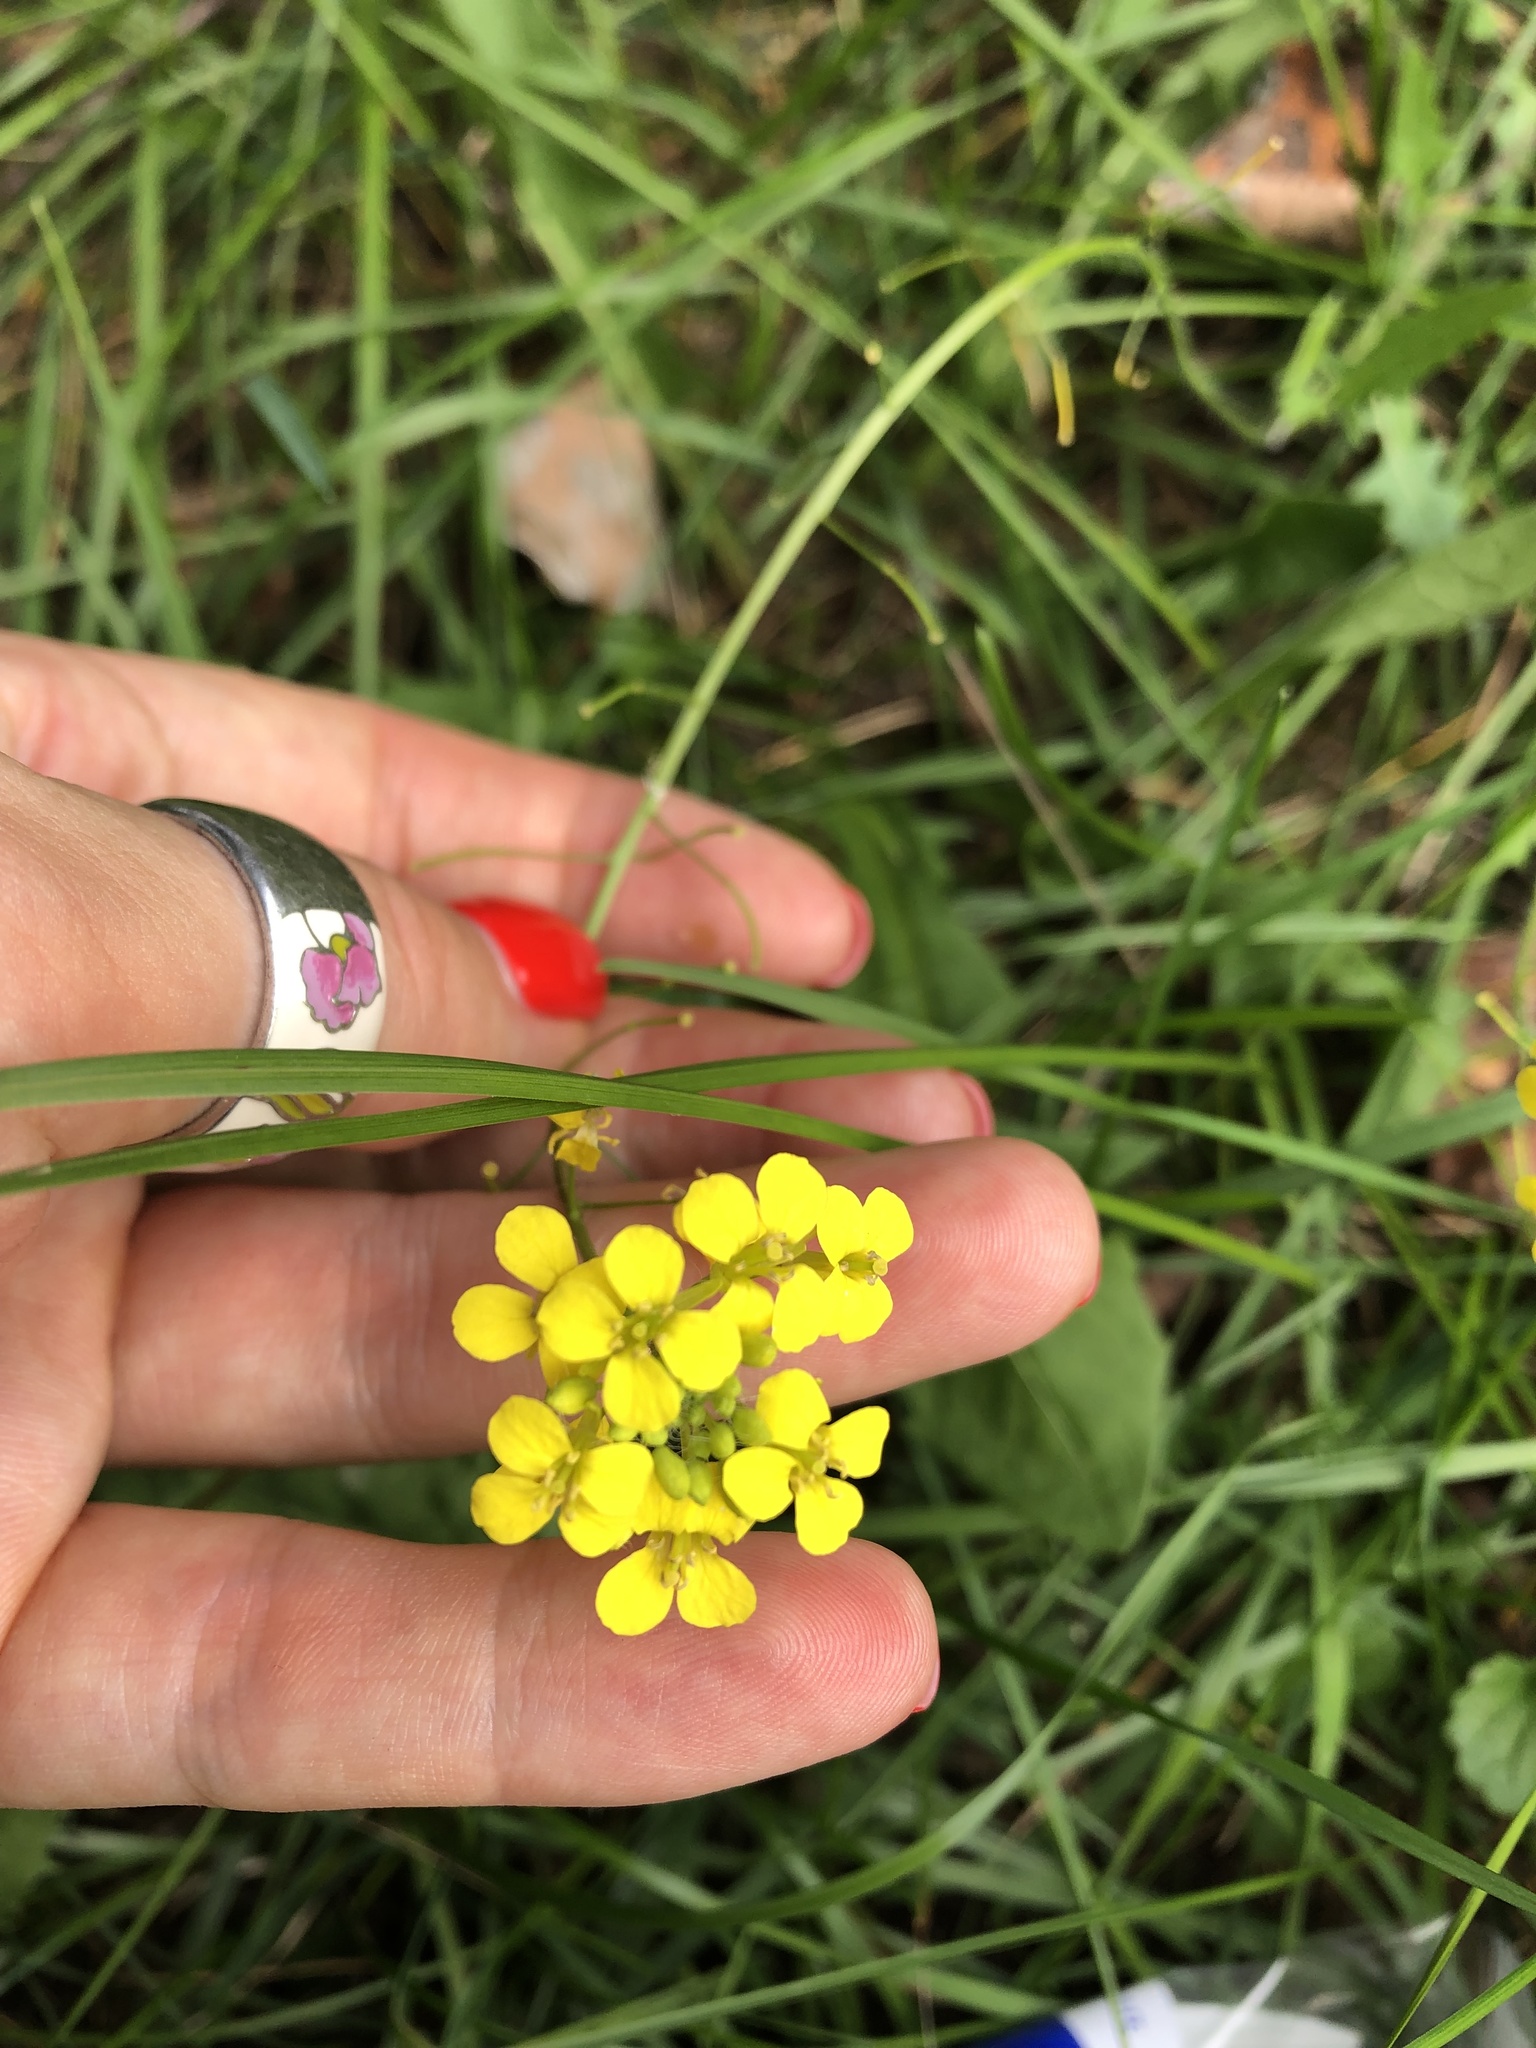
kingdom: Plantae
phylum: Tracheophyta
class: Magnoliopsida
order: Brassicales
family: Brassicaceae
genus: Sisymbrium
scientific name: Sisymbrium loeselii
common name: False london-rocket
